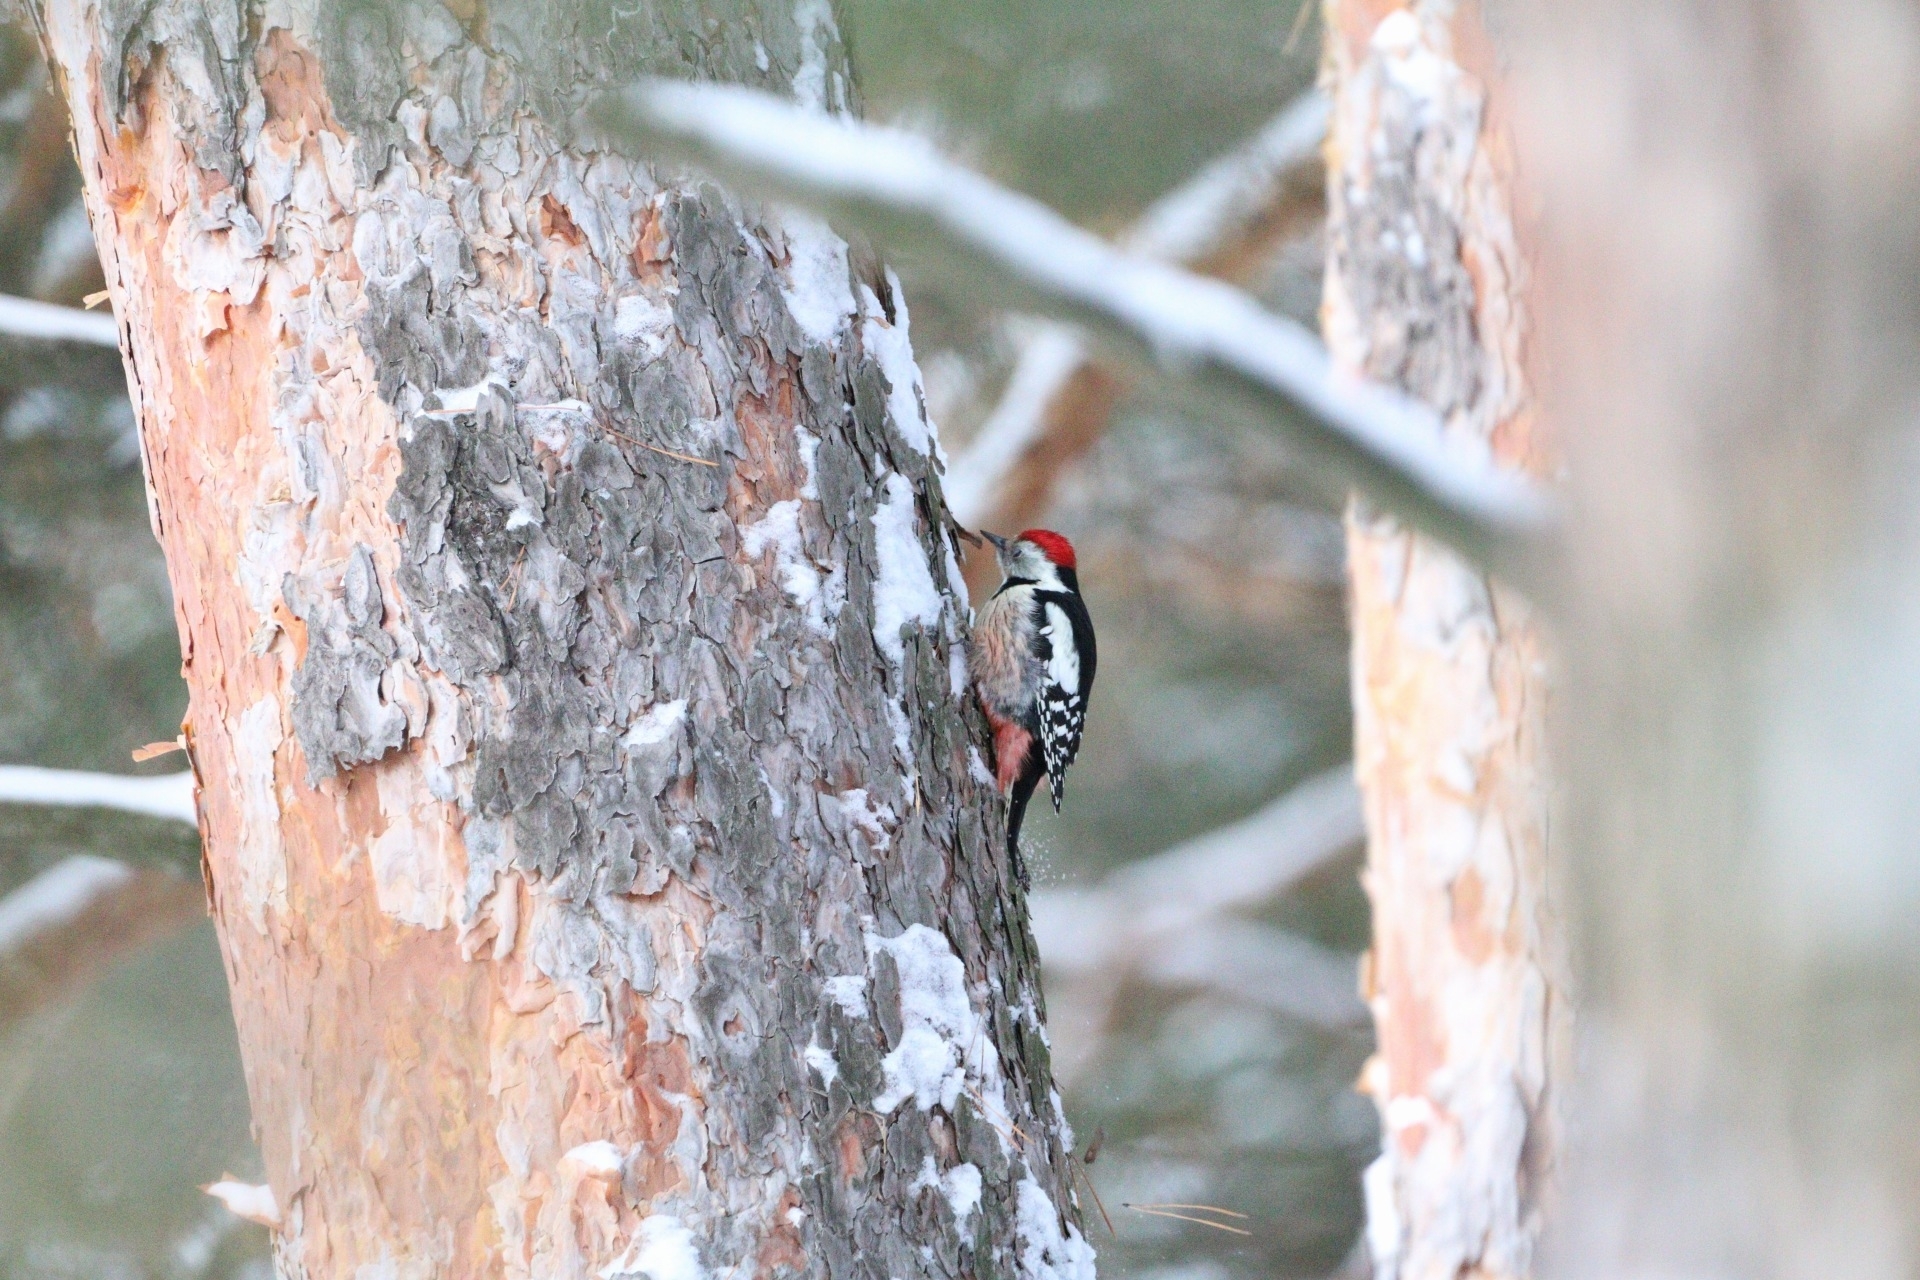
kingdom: Animalia
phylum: Chordata
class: Aves
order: Piciformes
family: Picidae
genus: Dendrocoptes
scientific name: Dendrocoptes medius
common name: Middle spotted woodpecker
